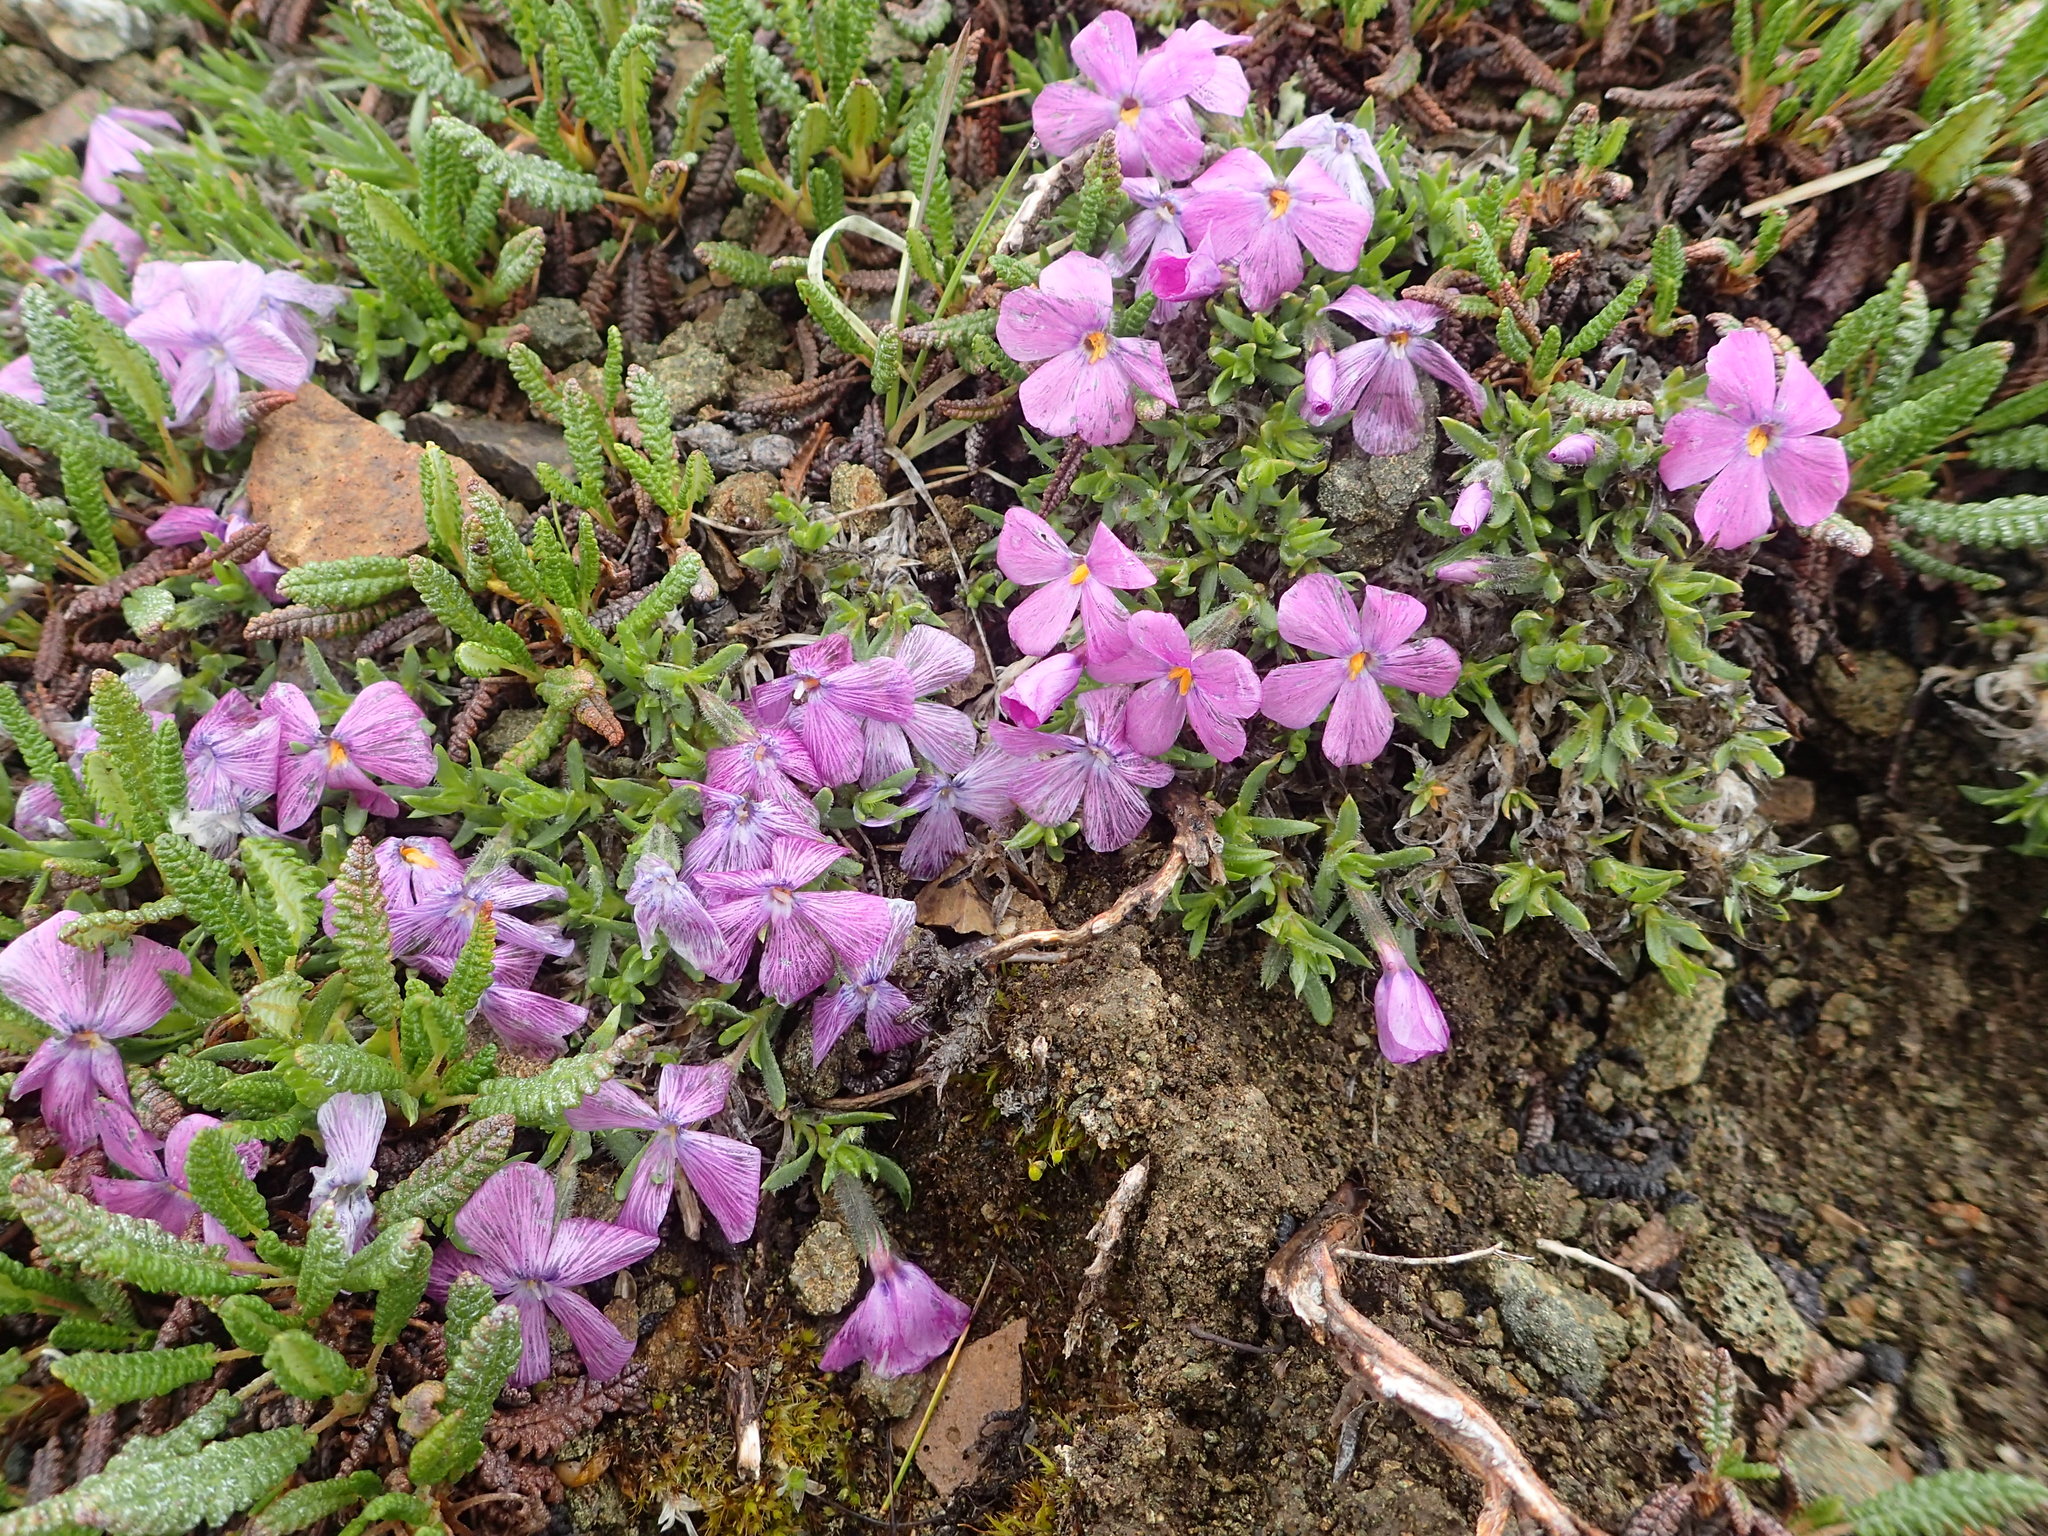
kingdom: Plantae
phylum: Tracheophyta
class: Magnoliopsida
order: Ericales
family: Polemoniaceae
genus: Phlox
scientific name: Phlox richardsonii
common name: Richardson's phlox
